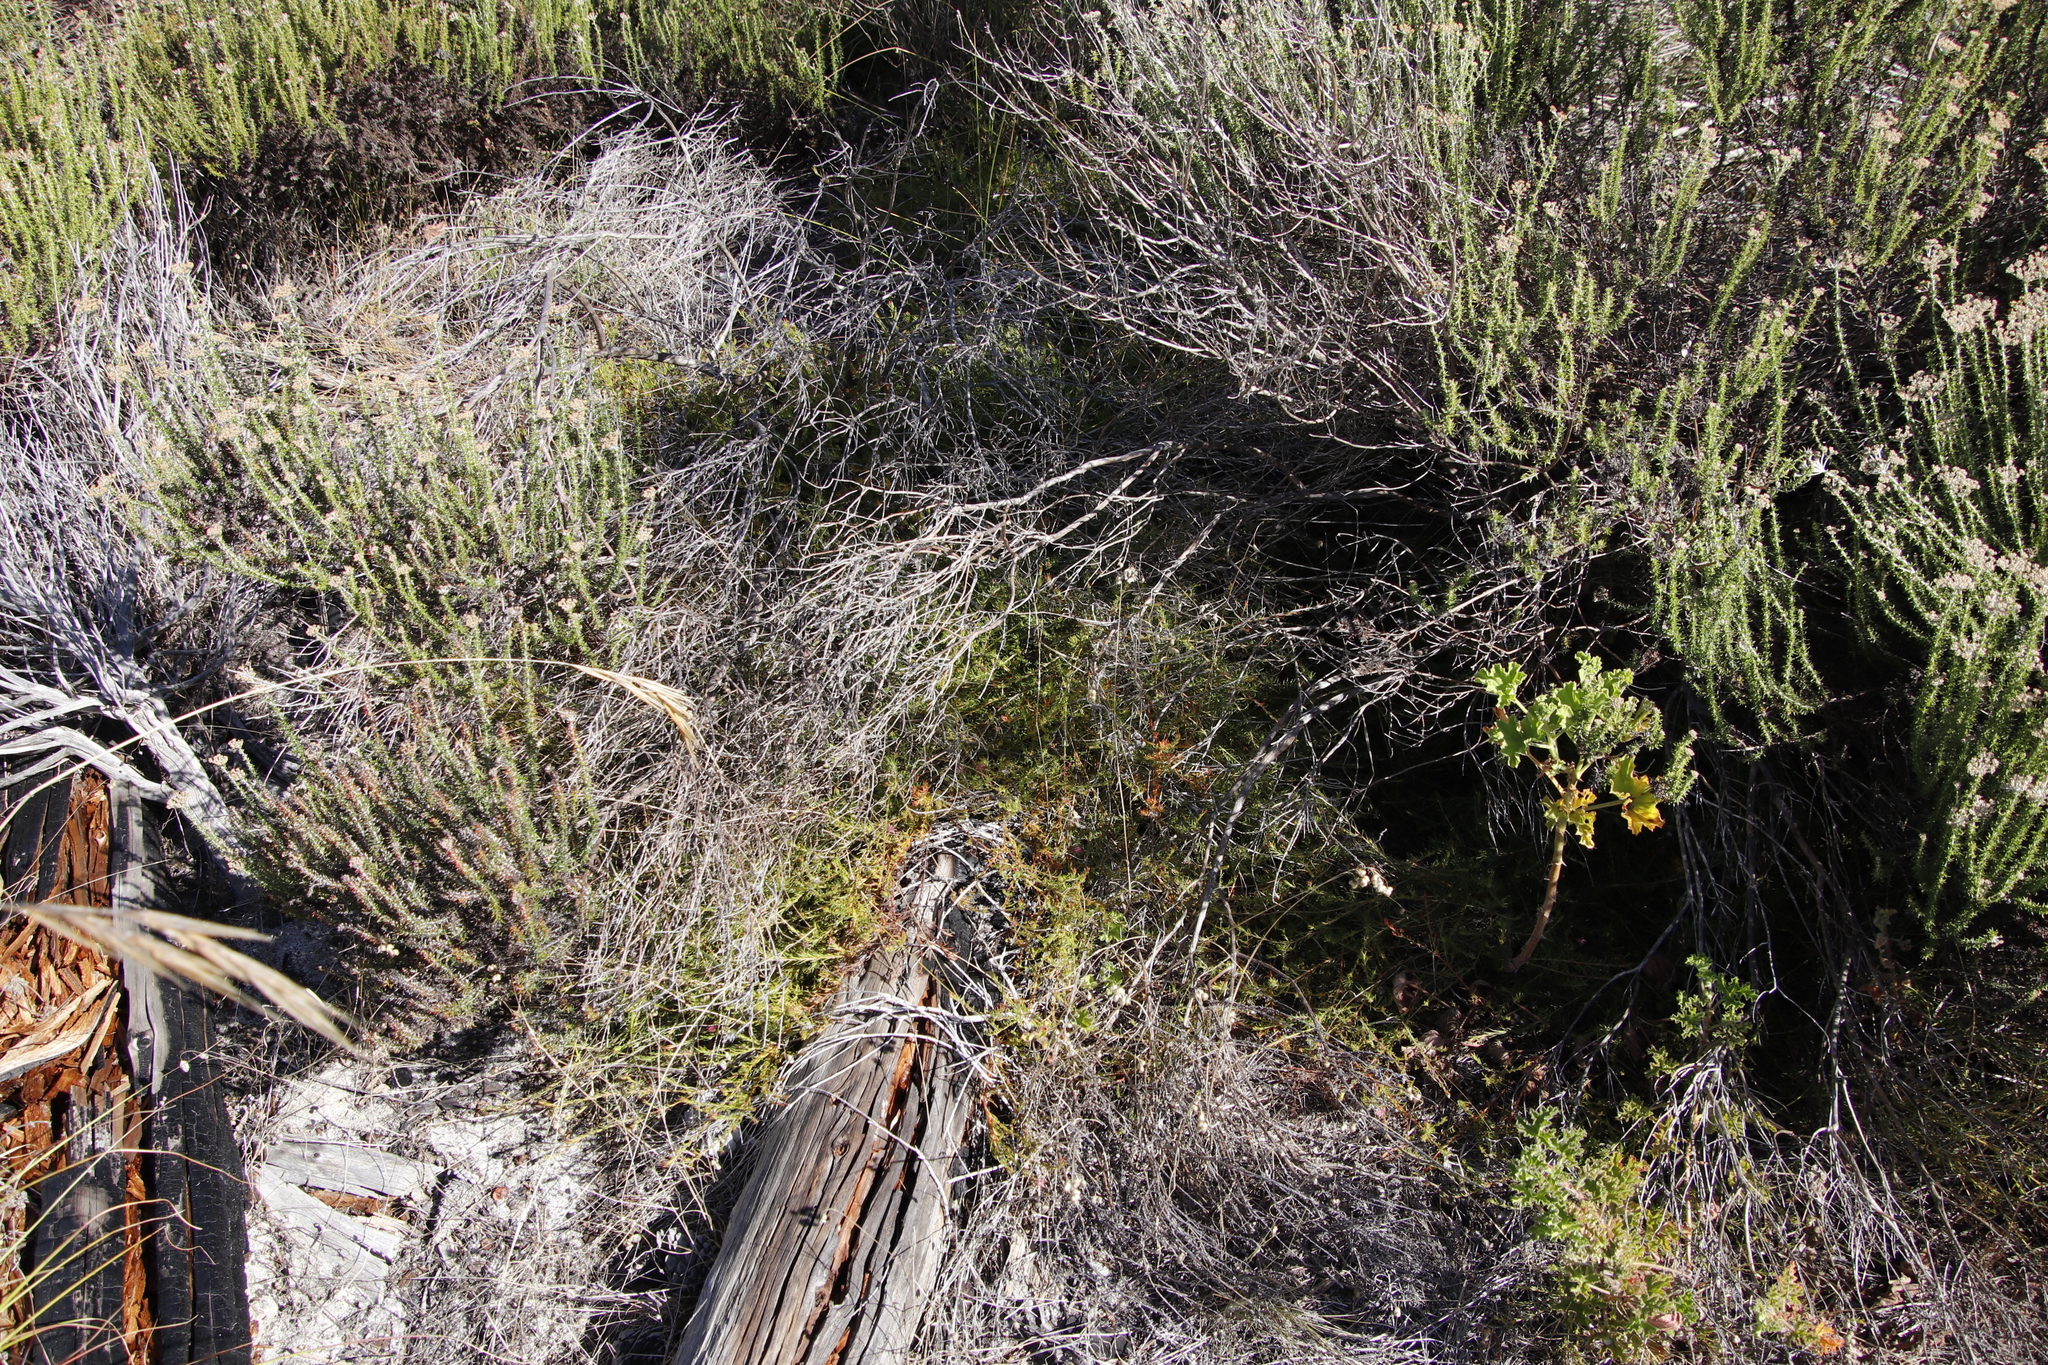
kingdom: Plantae
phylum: Tracheophyta
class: Magnoliopsida
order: Proteales
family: Proteaceae
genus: Diastella
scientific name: Diastella proteoides
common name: Flats silkypuff
